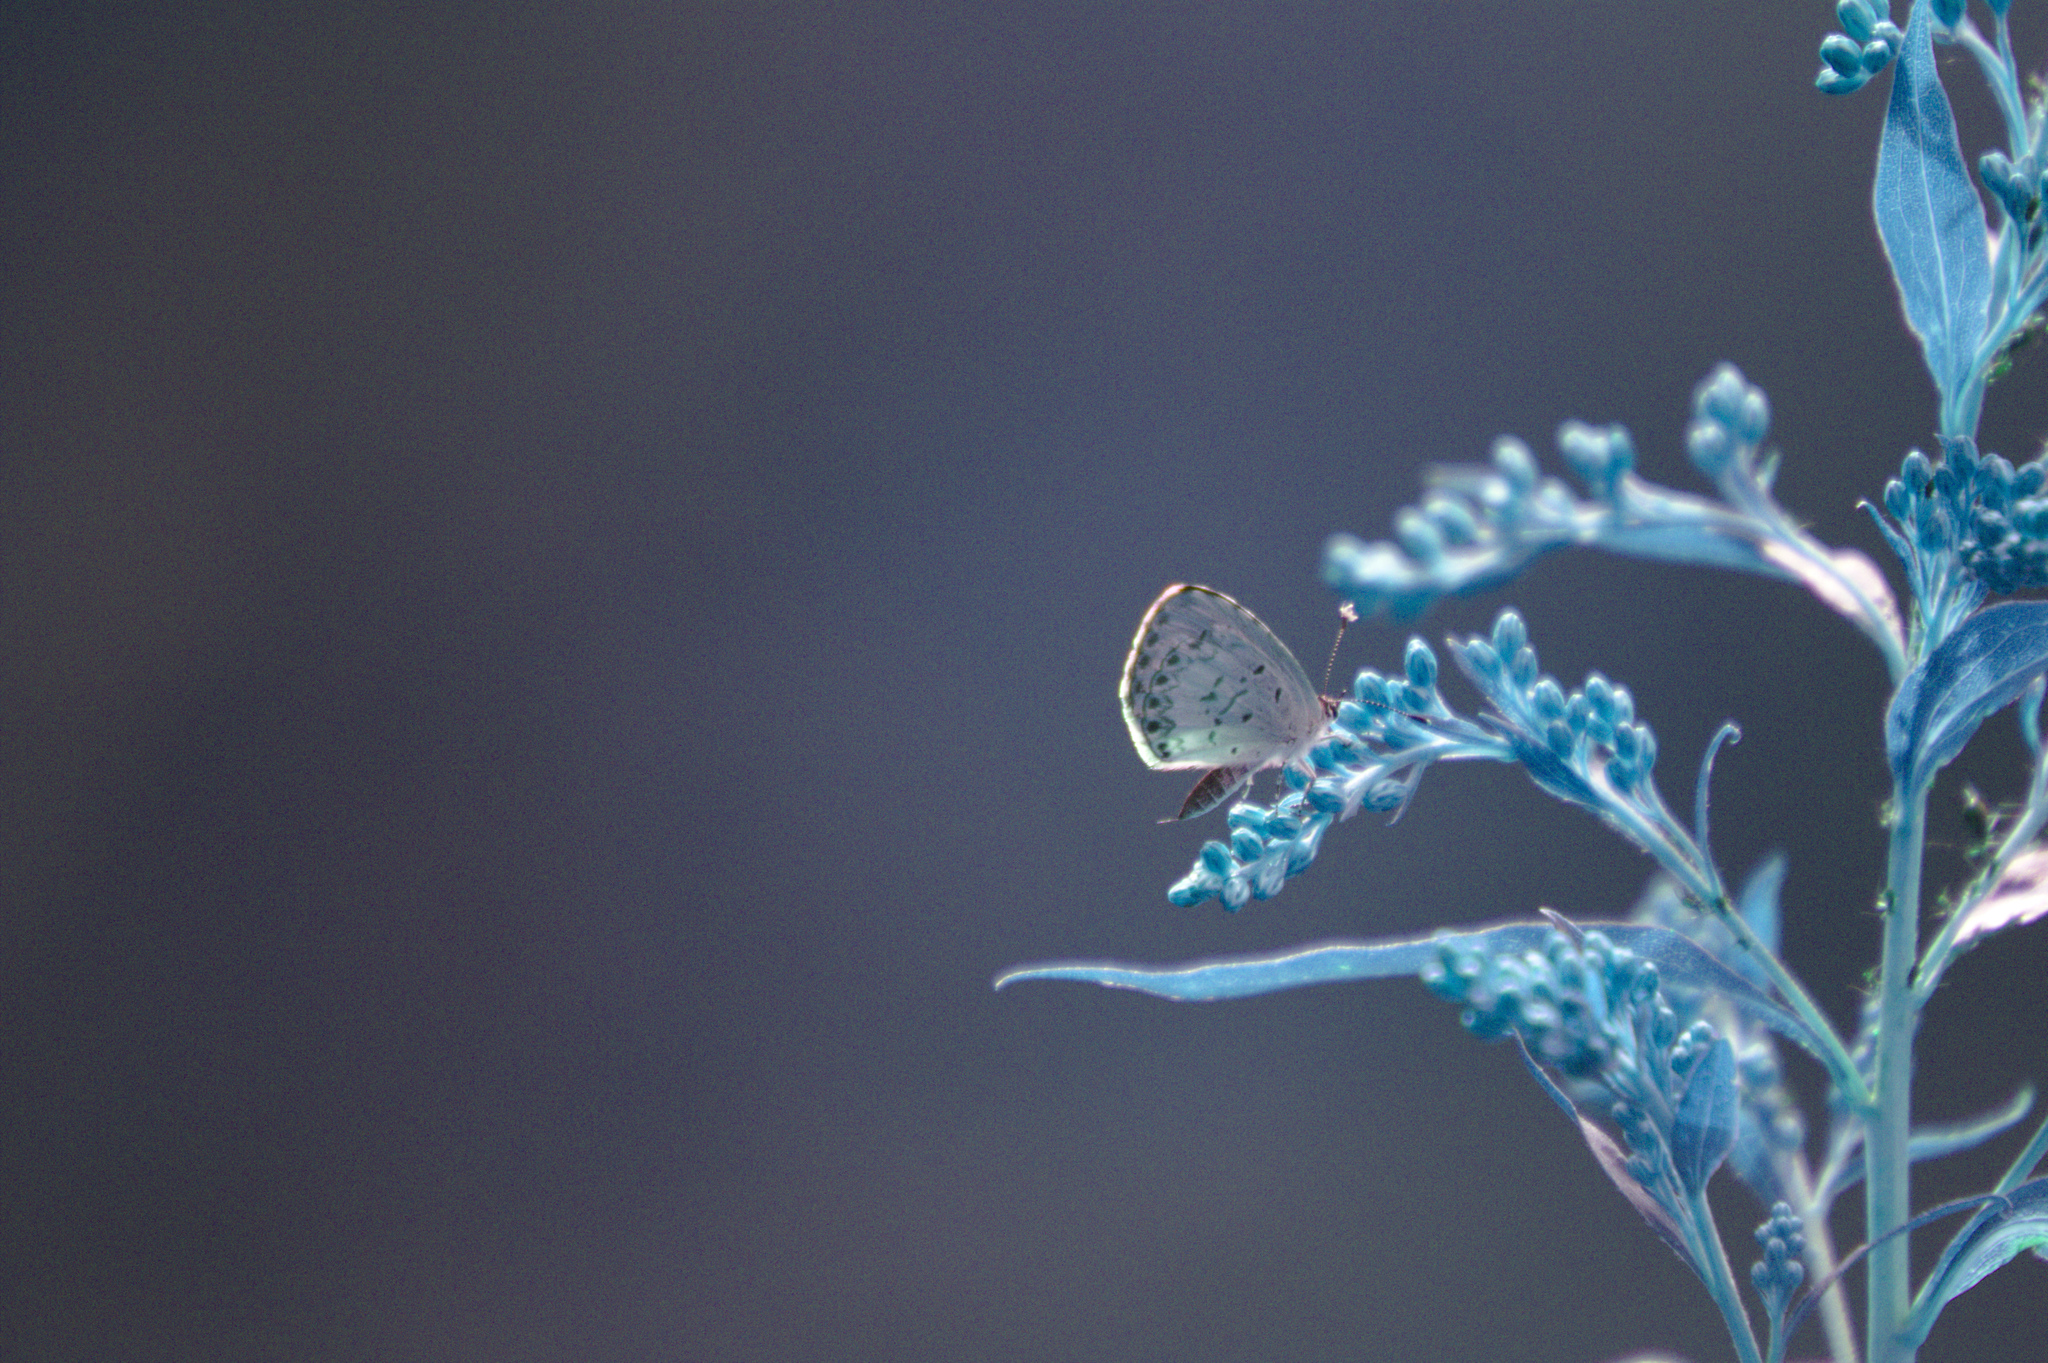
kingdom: Animalia
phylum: Arthropoda
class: Insecta
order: Lepidoptera
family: Lycaenidae
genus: Celastrina
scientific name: Celastrina lucia
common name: Lucia azure
